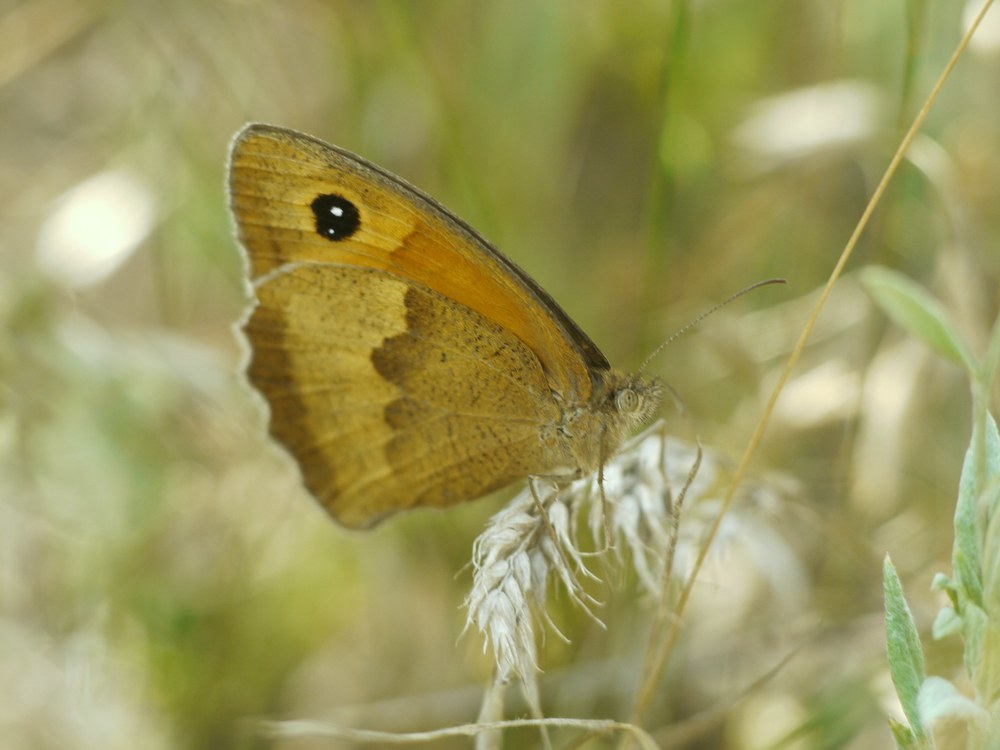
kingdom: Animalia
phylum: Arthropoda
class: Insecta
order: Lepidoptera
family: Nymphalidae
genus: Maniola
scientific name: Maniola jurtina
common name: Meadow brown
